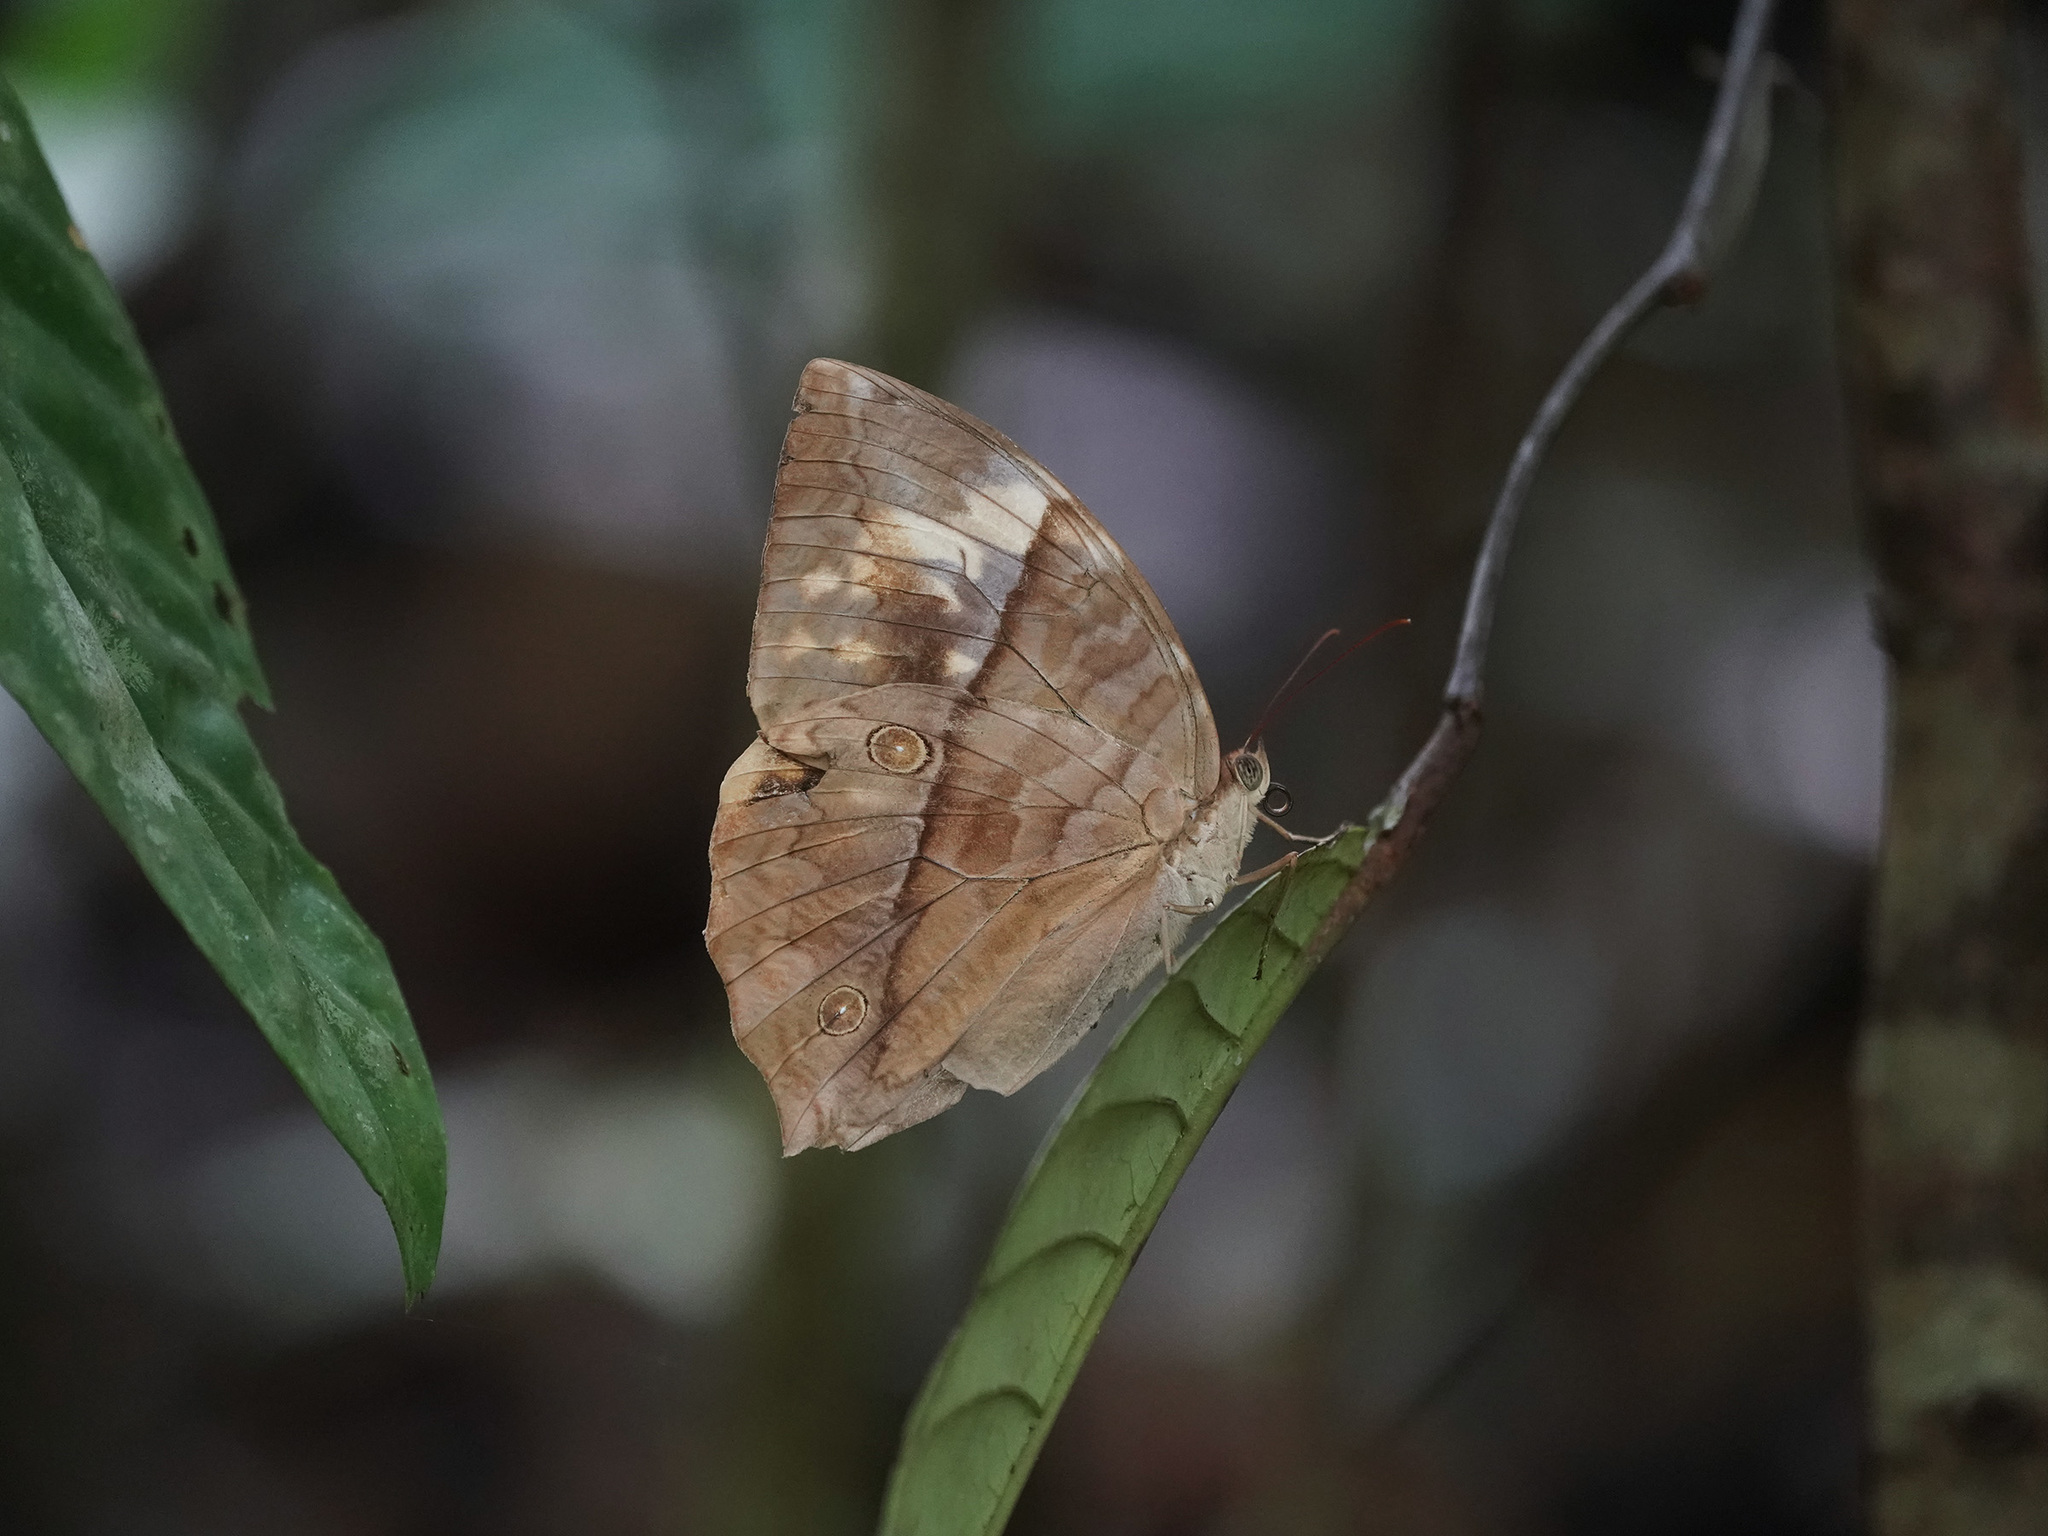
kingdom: Animalia
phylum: Arthropoda
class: Insecta
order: Lepidoptera
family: Nymphalidae
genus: Zeuxidia
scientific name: Zeuxidia amethysta
